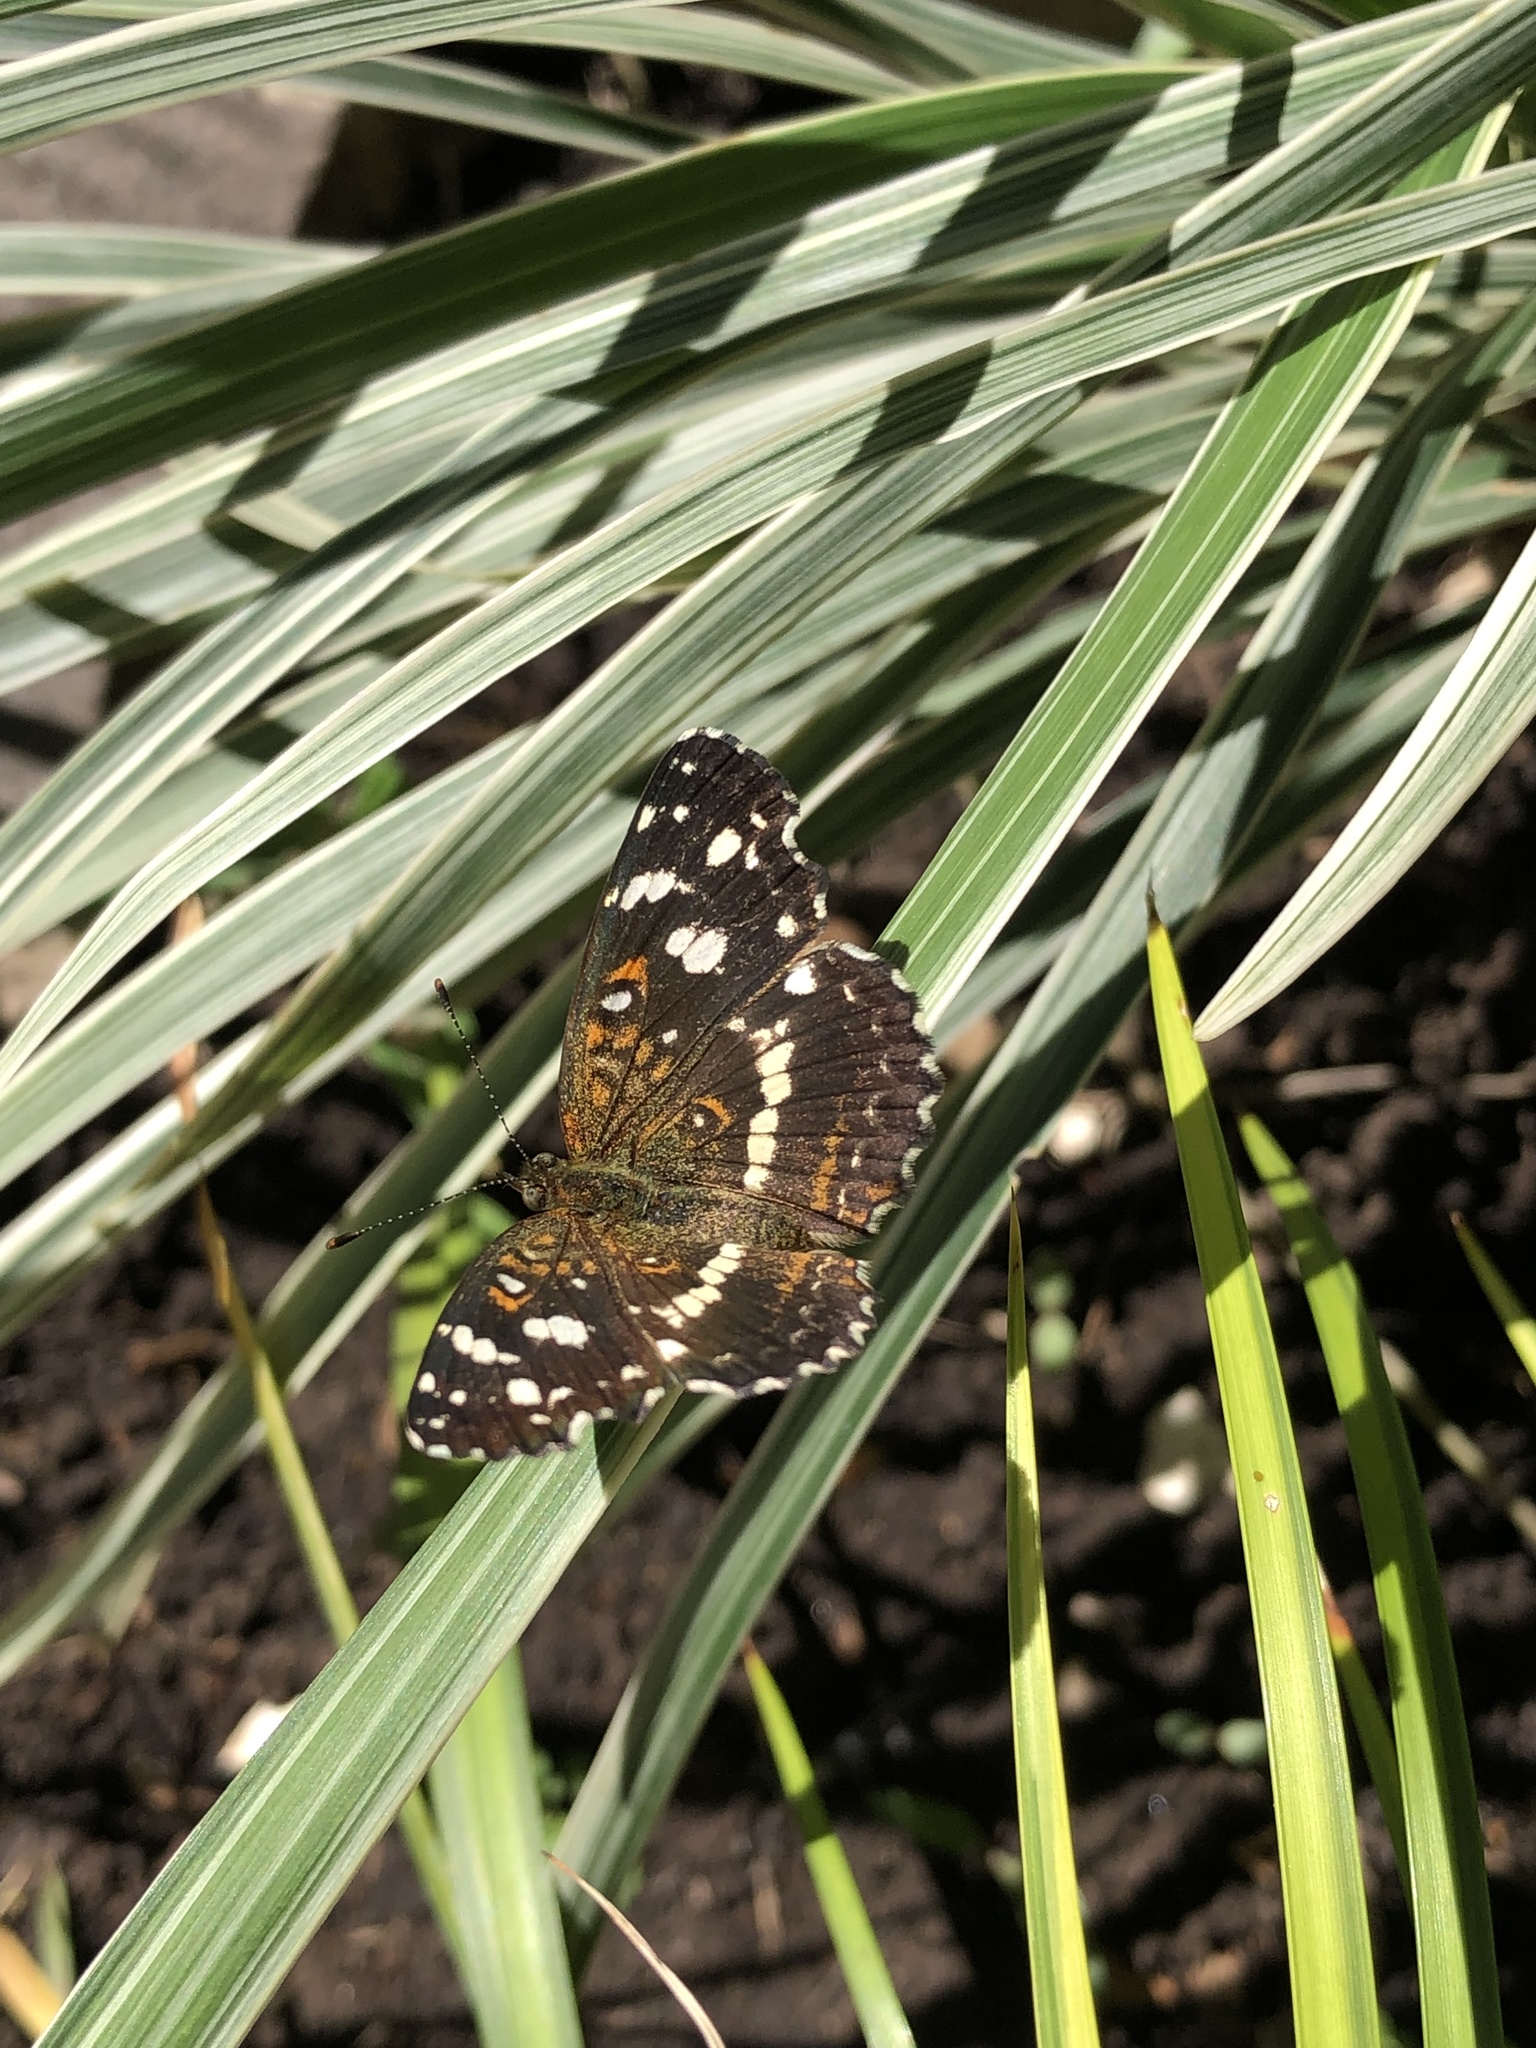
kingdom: Animalia
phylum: Arthropoda
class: Insecta
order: Lepidoptera
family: Nymphalidae
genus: Ortilia
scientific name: Ortilia ithra
